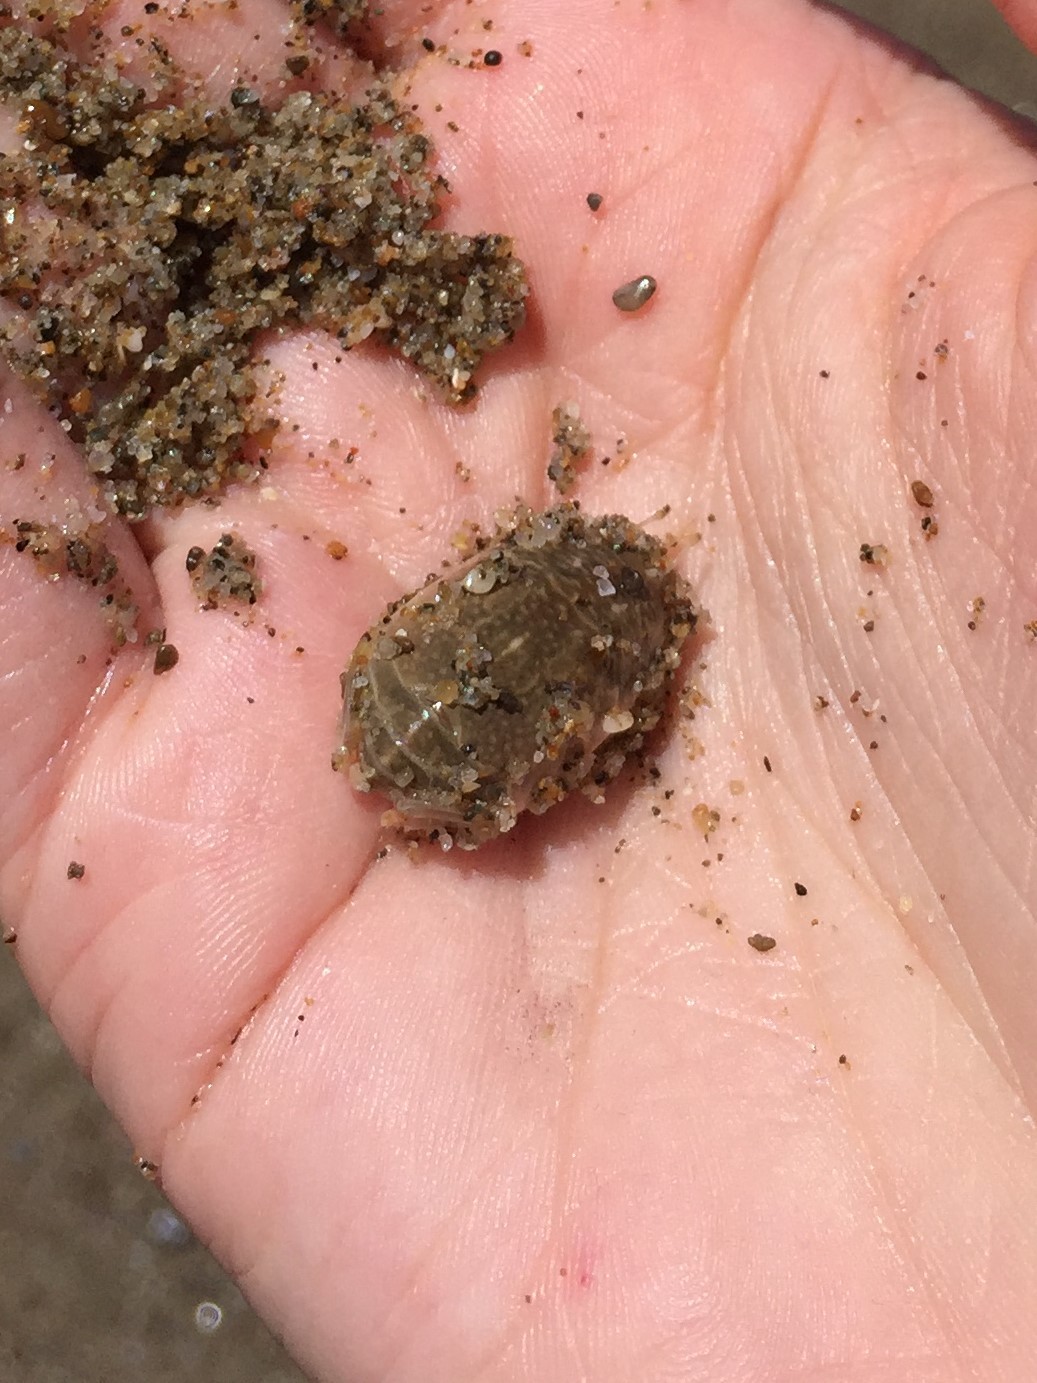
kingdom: Animalia
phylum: Arthropoda
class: Malacostraca
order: Decapoda
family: Hippidae
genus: Emerita
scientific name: Emerita analoga
